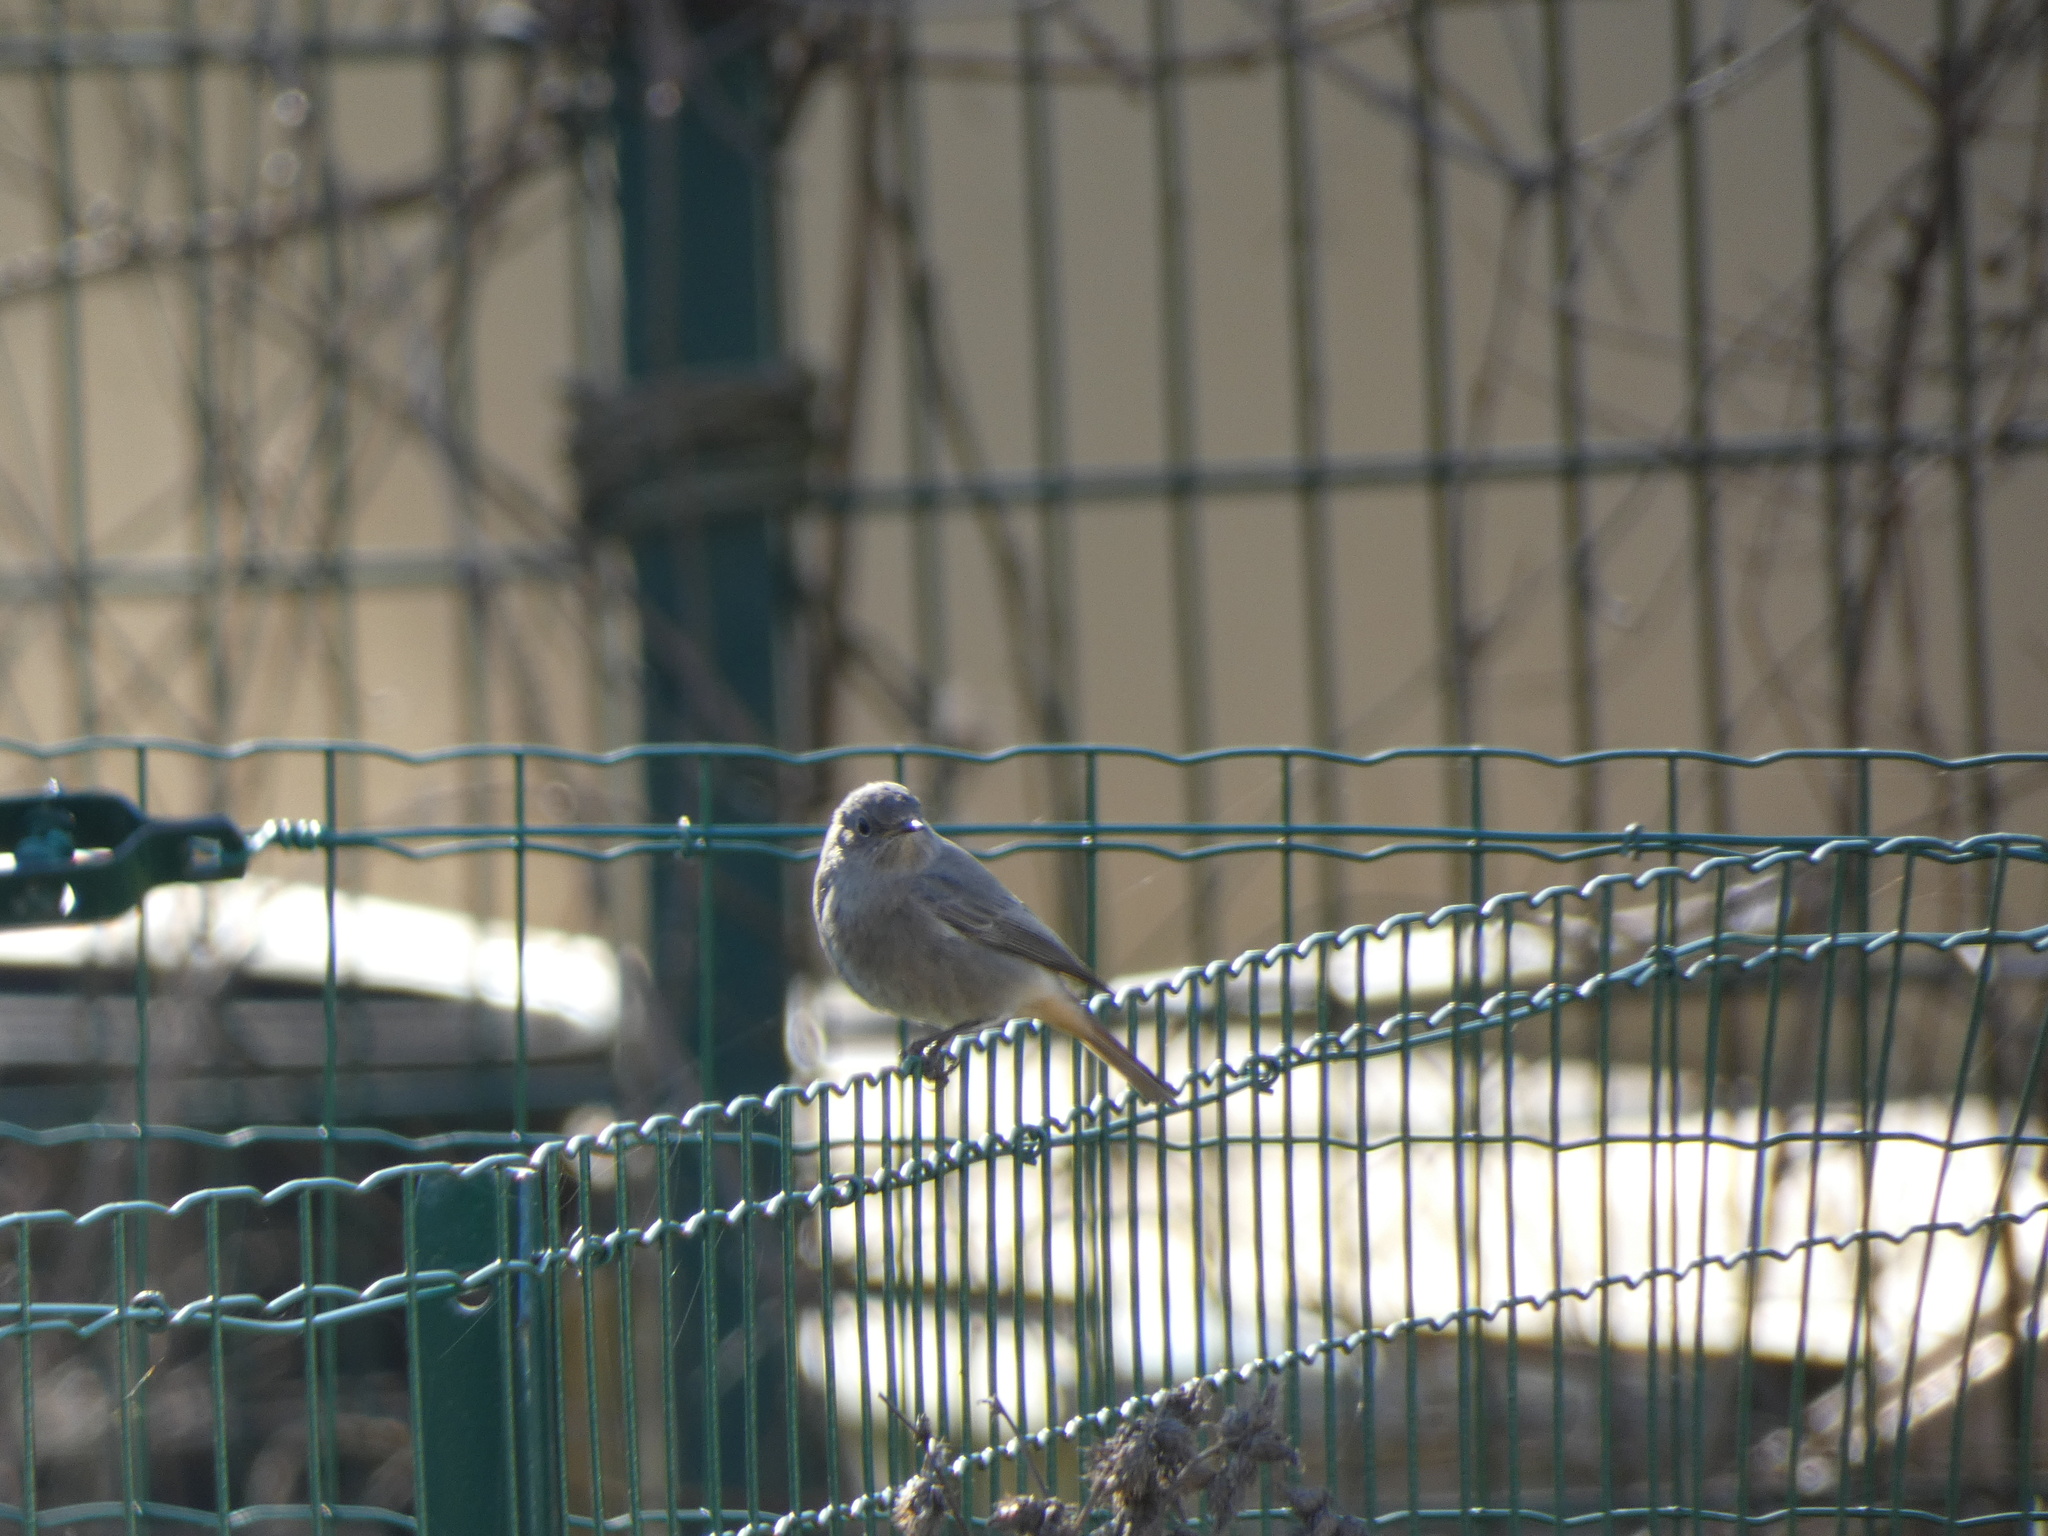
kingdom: Animalia
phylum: Chordata
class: Aves
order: Passeriformes
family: Muscicapidae
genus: Phoenicurus
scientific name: Phoenicurus ochruros
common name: Black redstart
